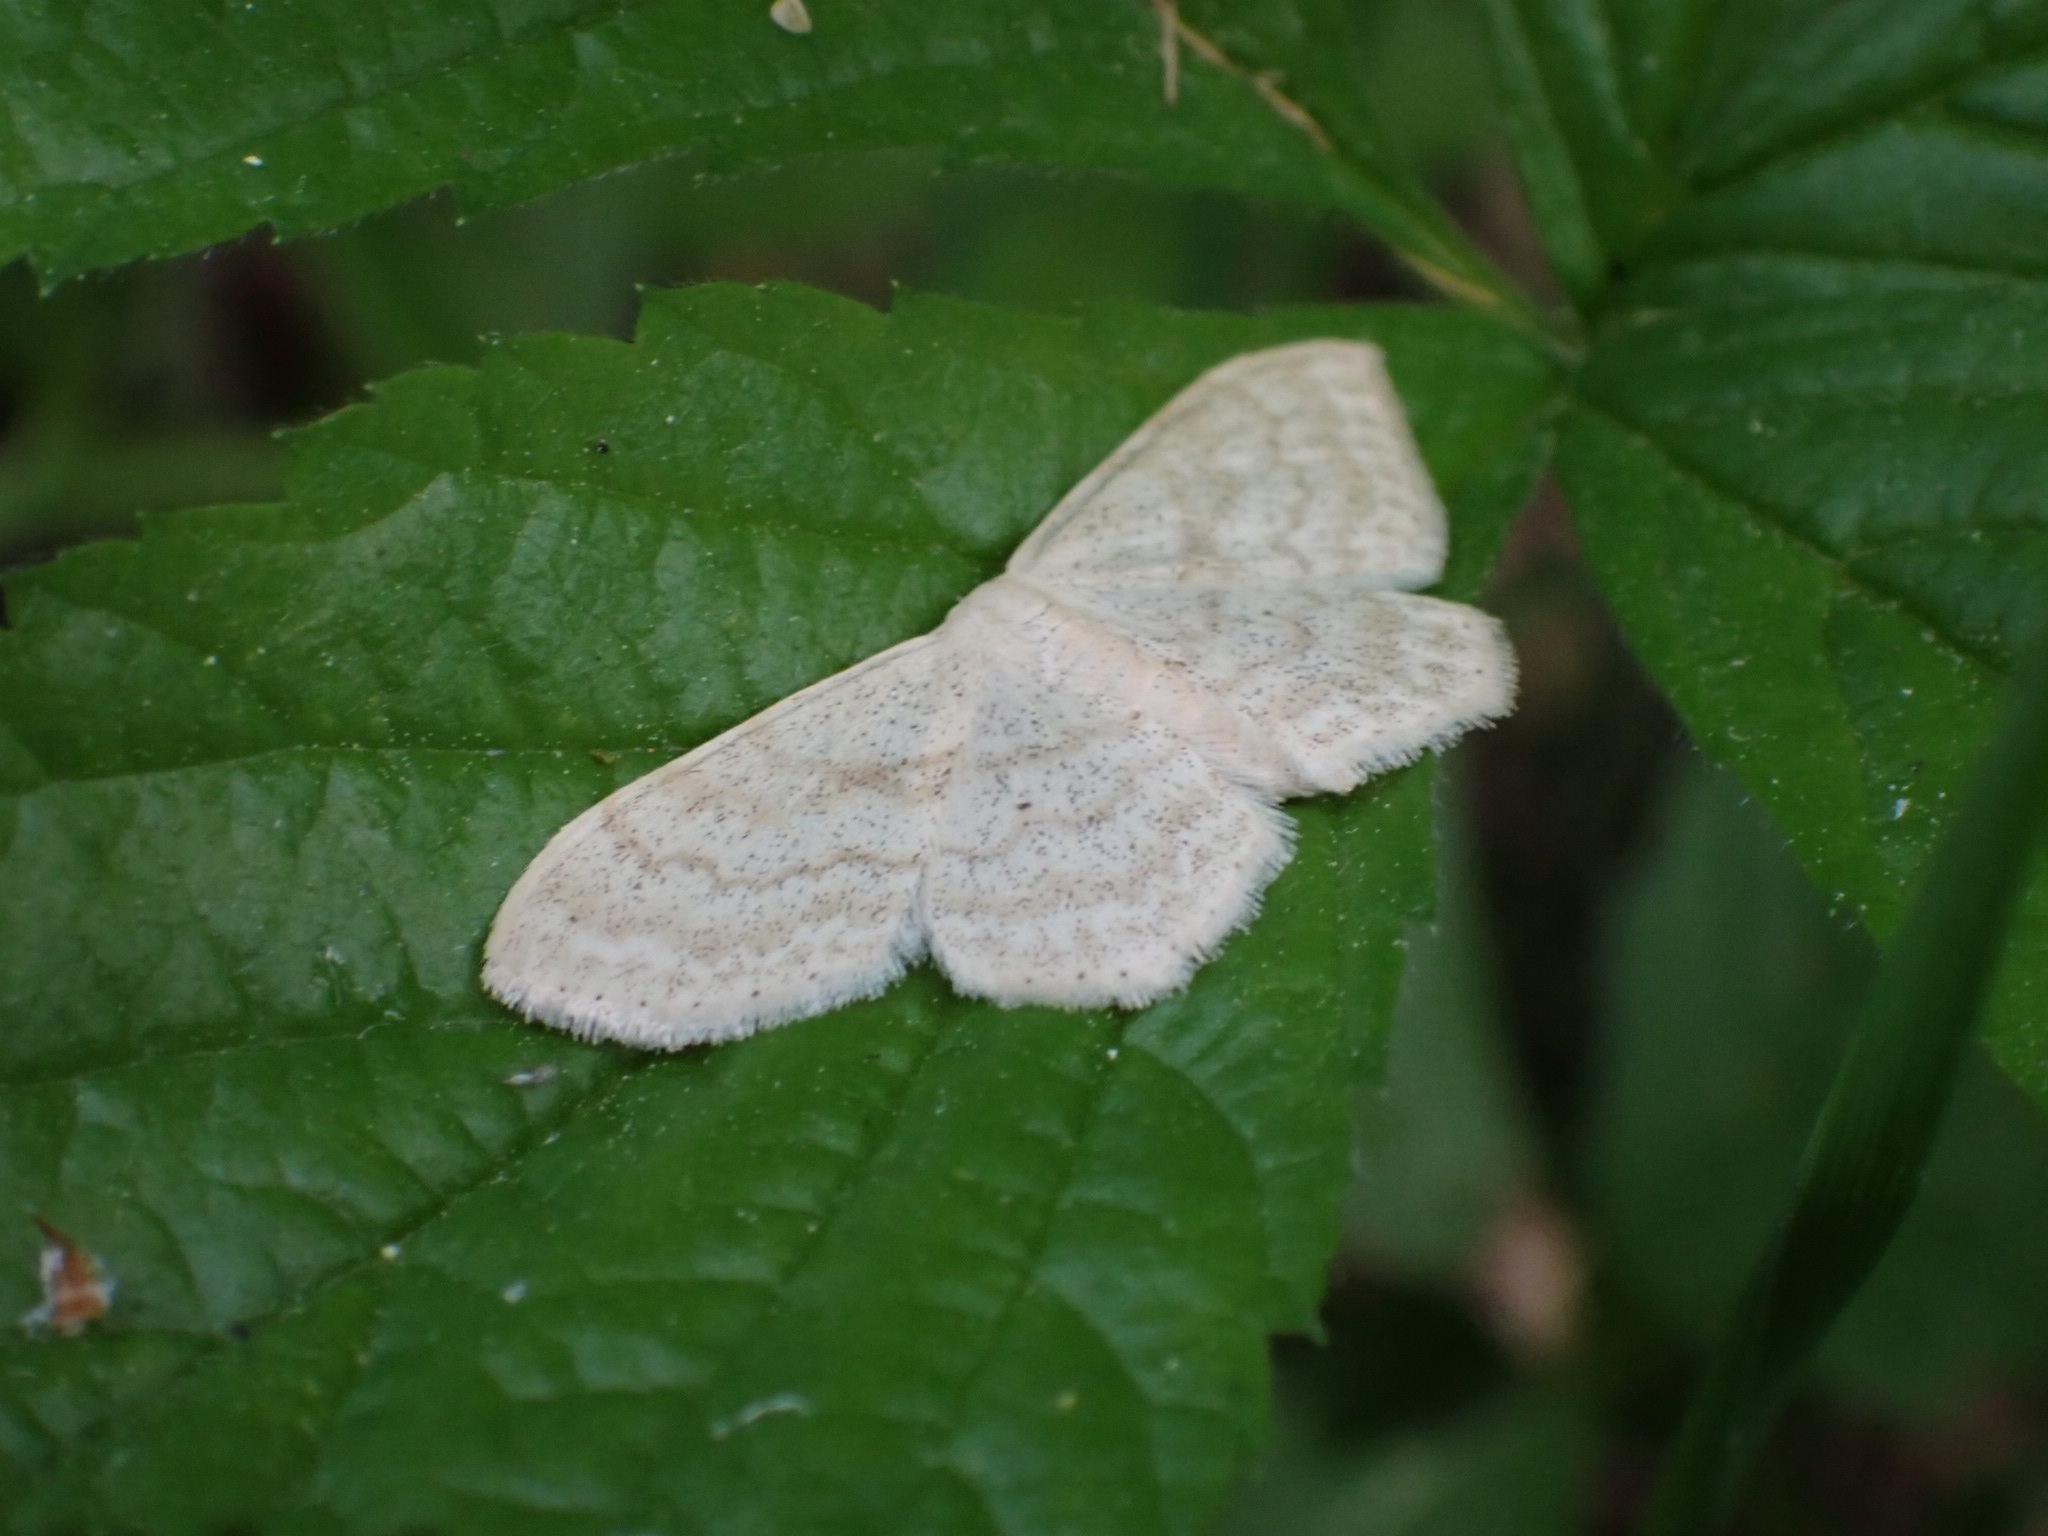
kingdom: Animalia
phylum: Arthropoda
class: Insecta
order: Lepidoptera
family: Geometridae
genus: Scopula
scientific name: Scopula floslactata
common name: Cream wave
